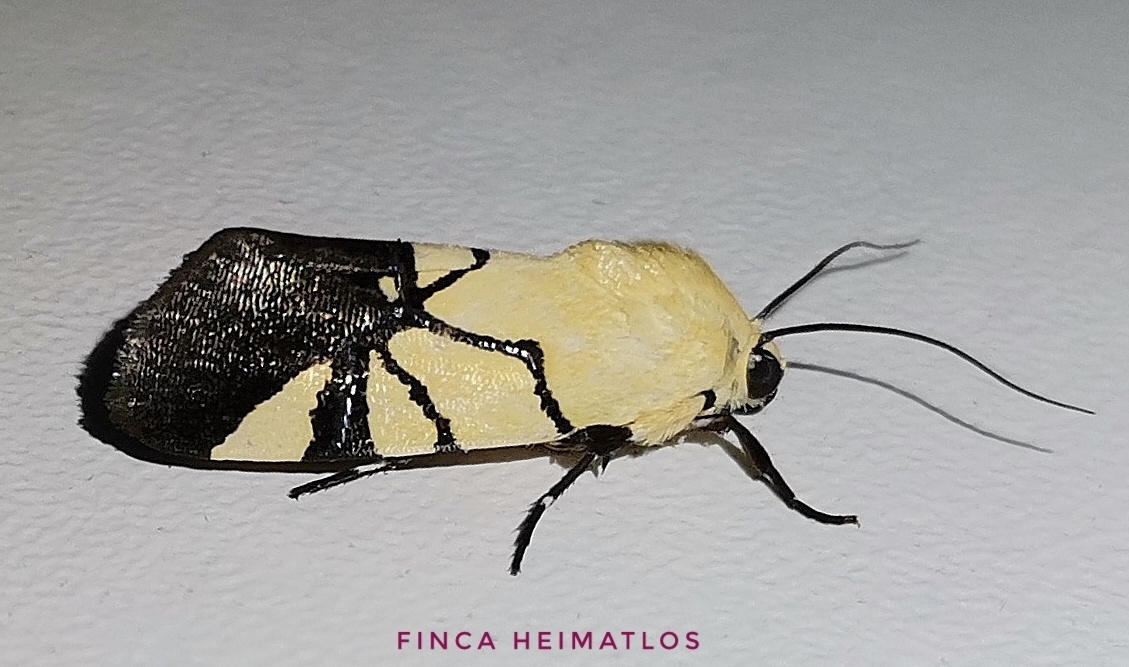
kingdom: Animalia
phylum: Arthropoda
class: Insecta
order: Lepidoptera
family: Noctuidae
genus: Eusceptis
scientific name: Eusceptis flavifrimbriata
